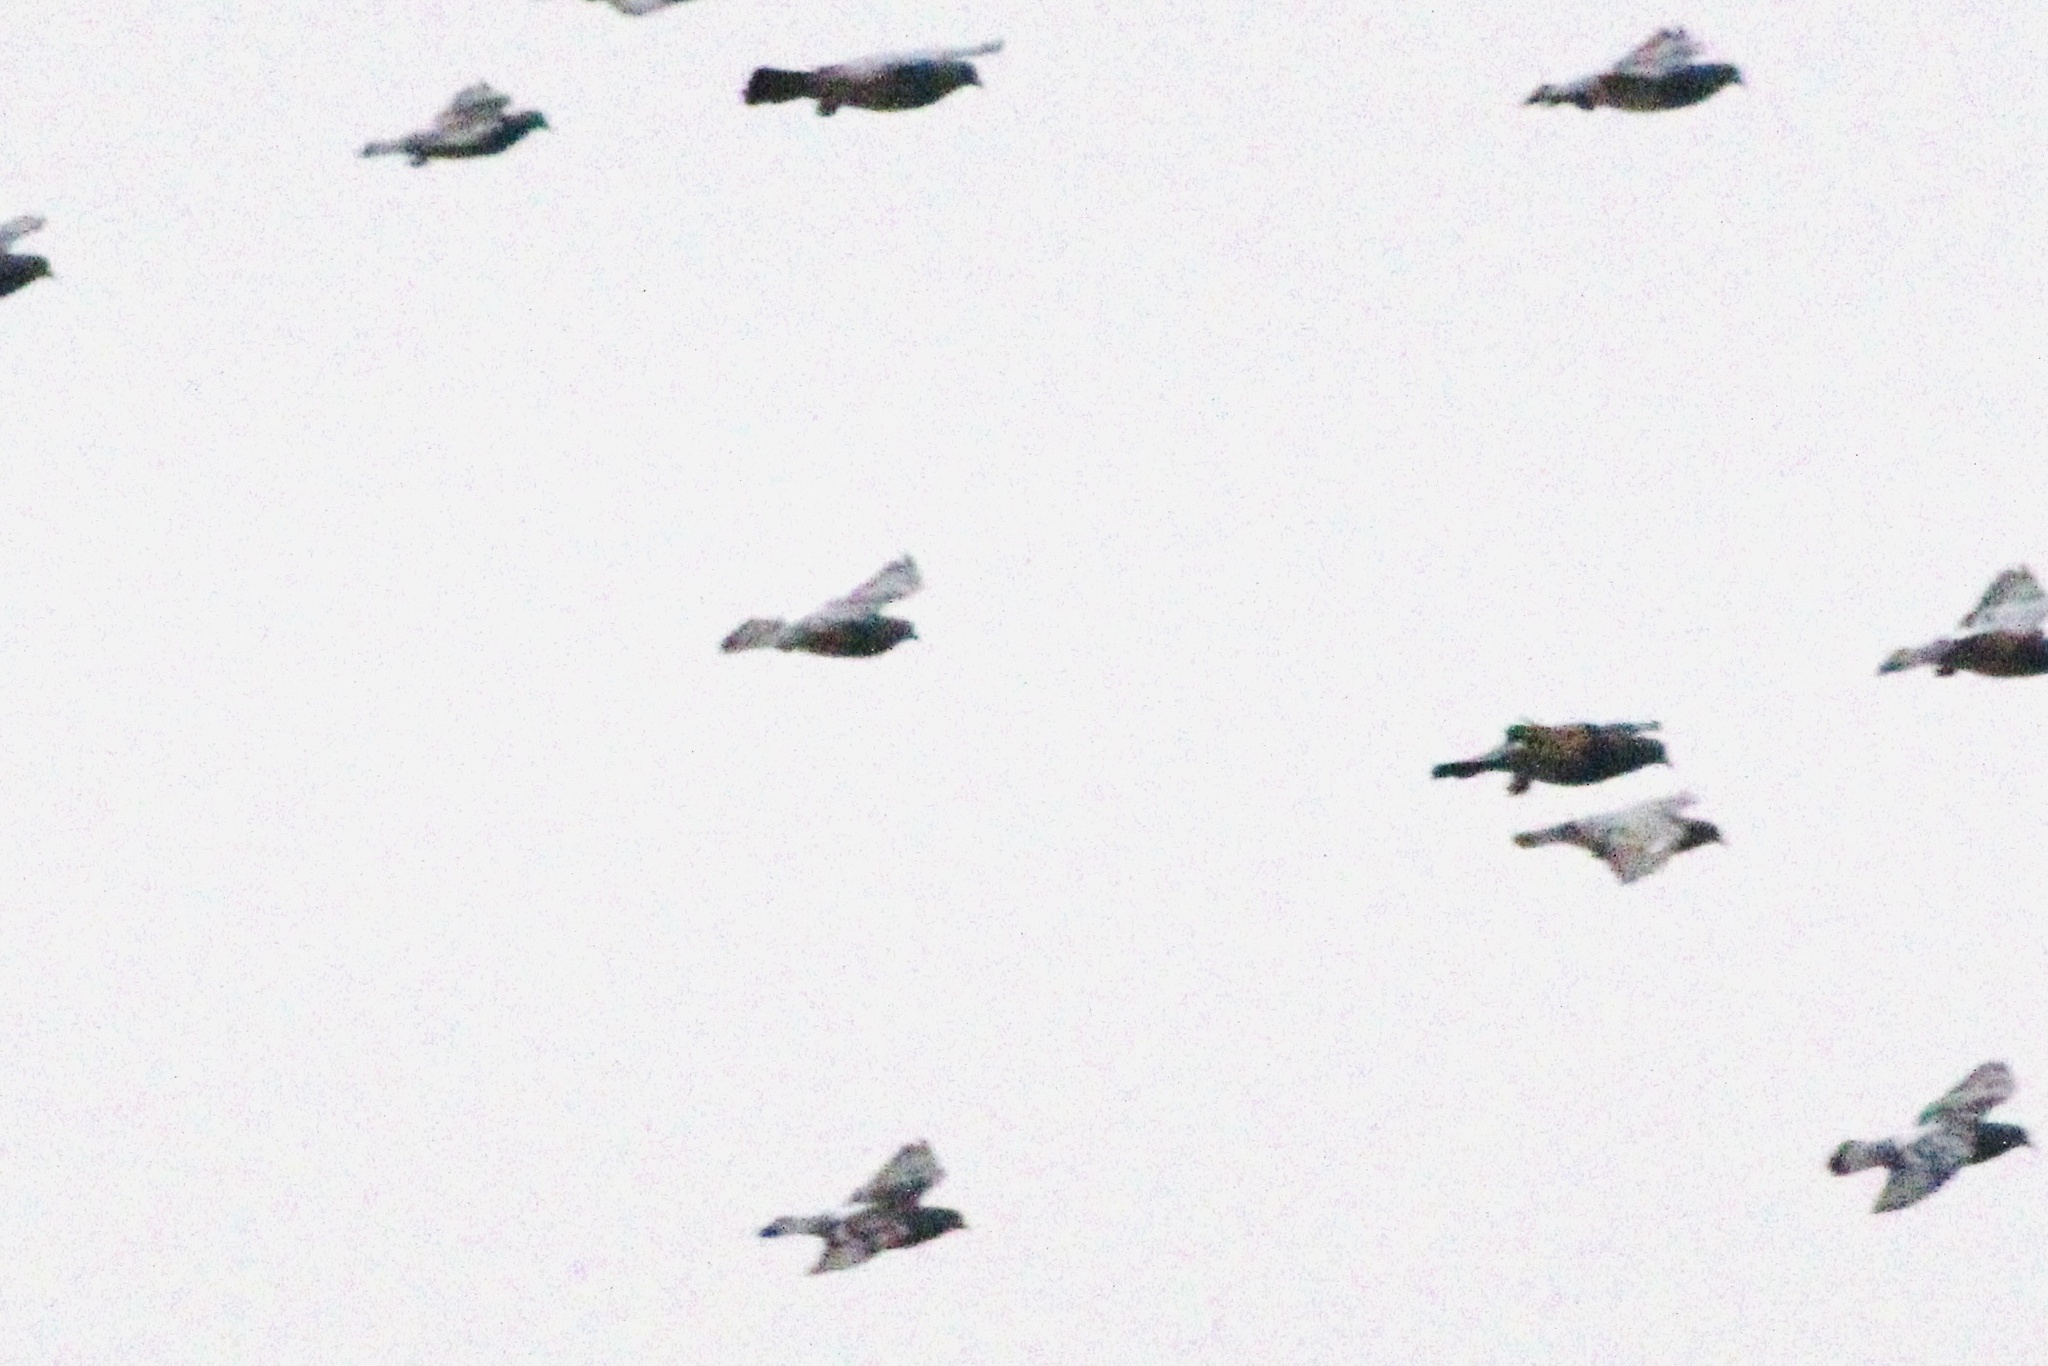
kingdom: Animalia
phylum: Chordata
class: Aves
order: Columbiformes
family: Columbidae
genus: Columba
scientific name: Columba livia
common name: Rock pigeon
